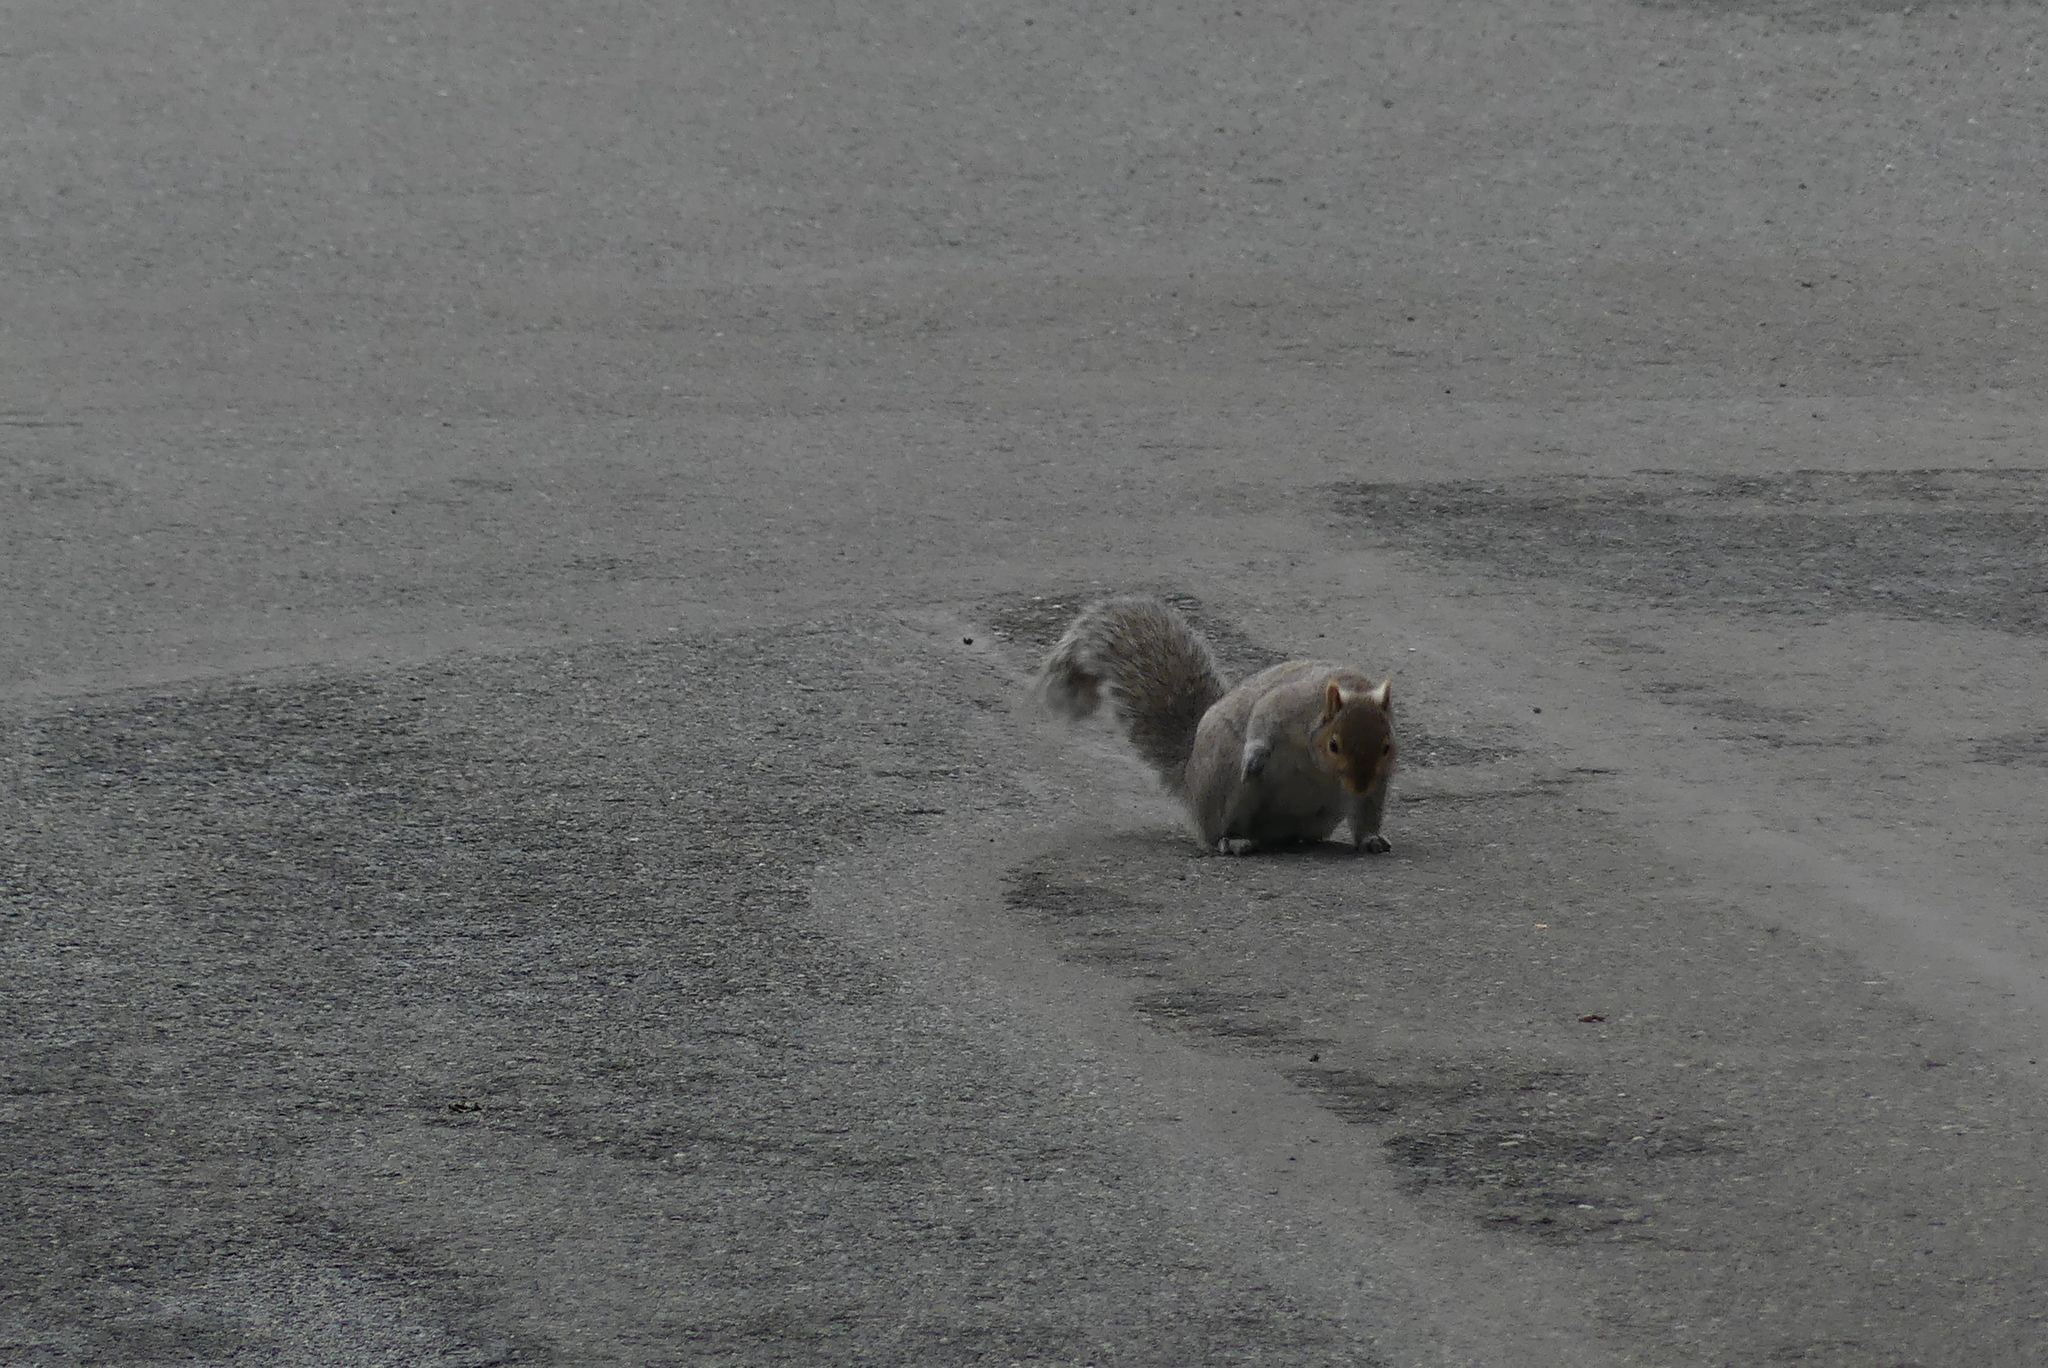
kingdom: Animalia
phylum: Chordata
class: Mammalia
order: Rodentia
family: Sciuridae
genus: Sciurus
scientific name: Sciurus carolinensis
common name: Eastern gray squirrel
